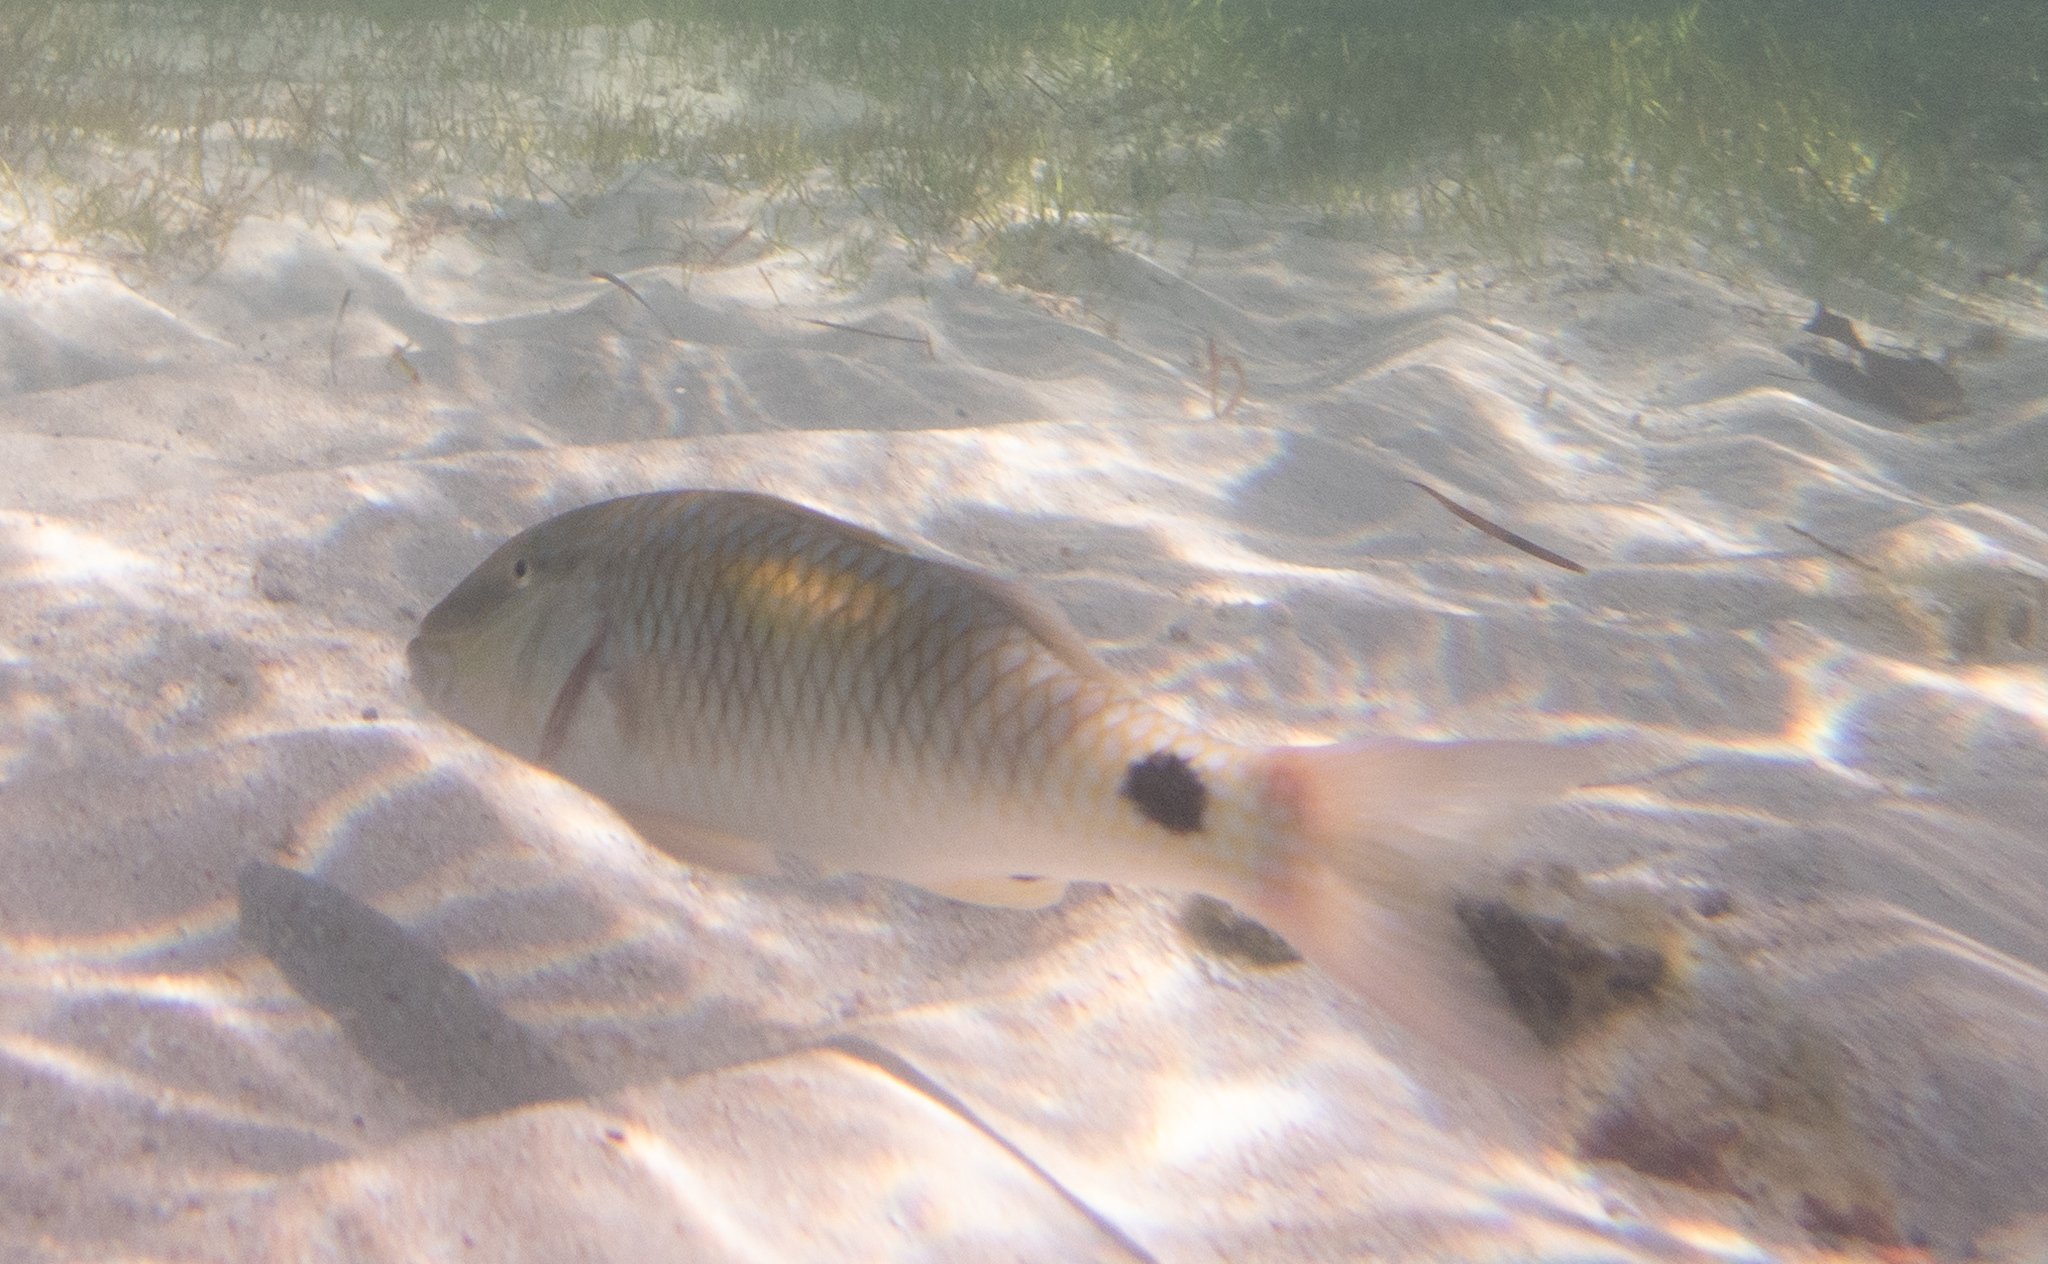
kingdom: Animalia
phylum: Chordata
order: Perciformes
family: Mullidae
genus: Parupeneus
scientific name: Parupeneus indicus
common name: Indian goatfish
